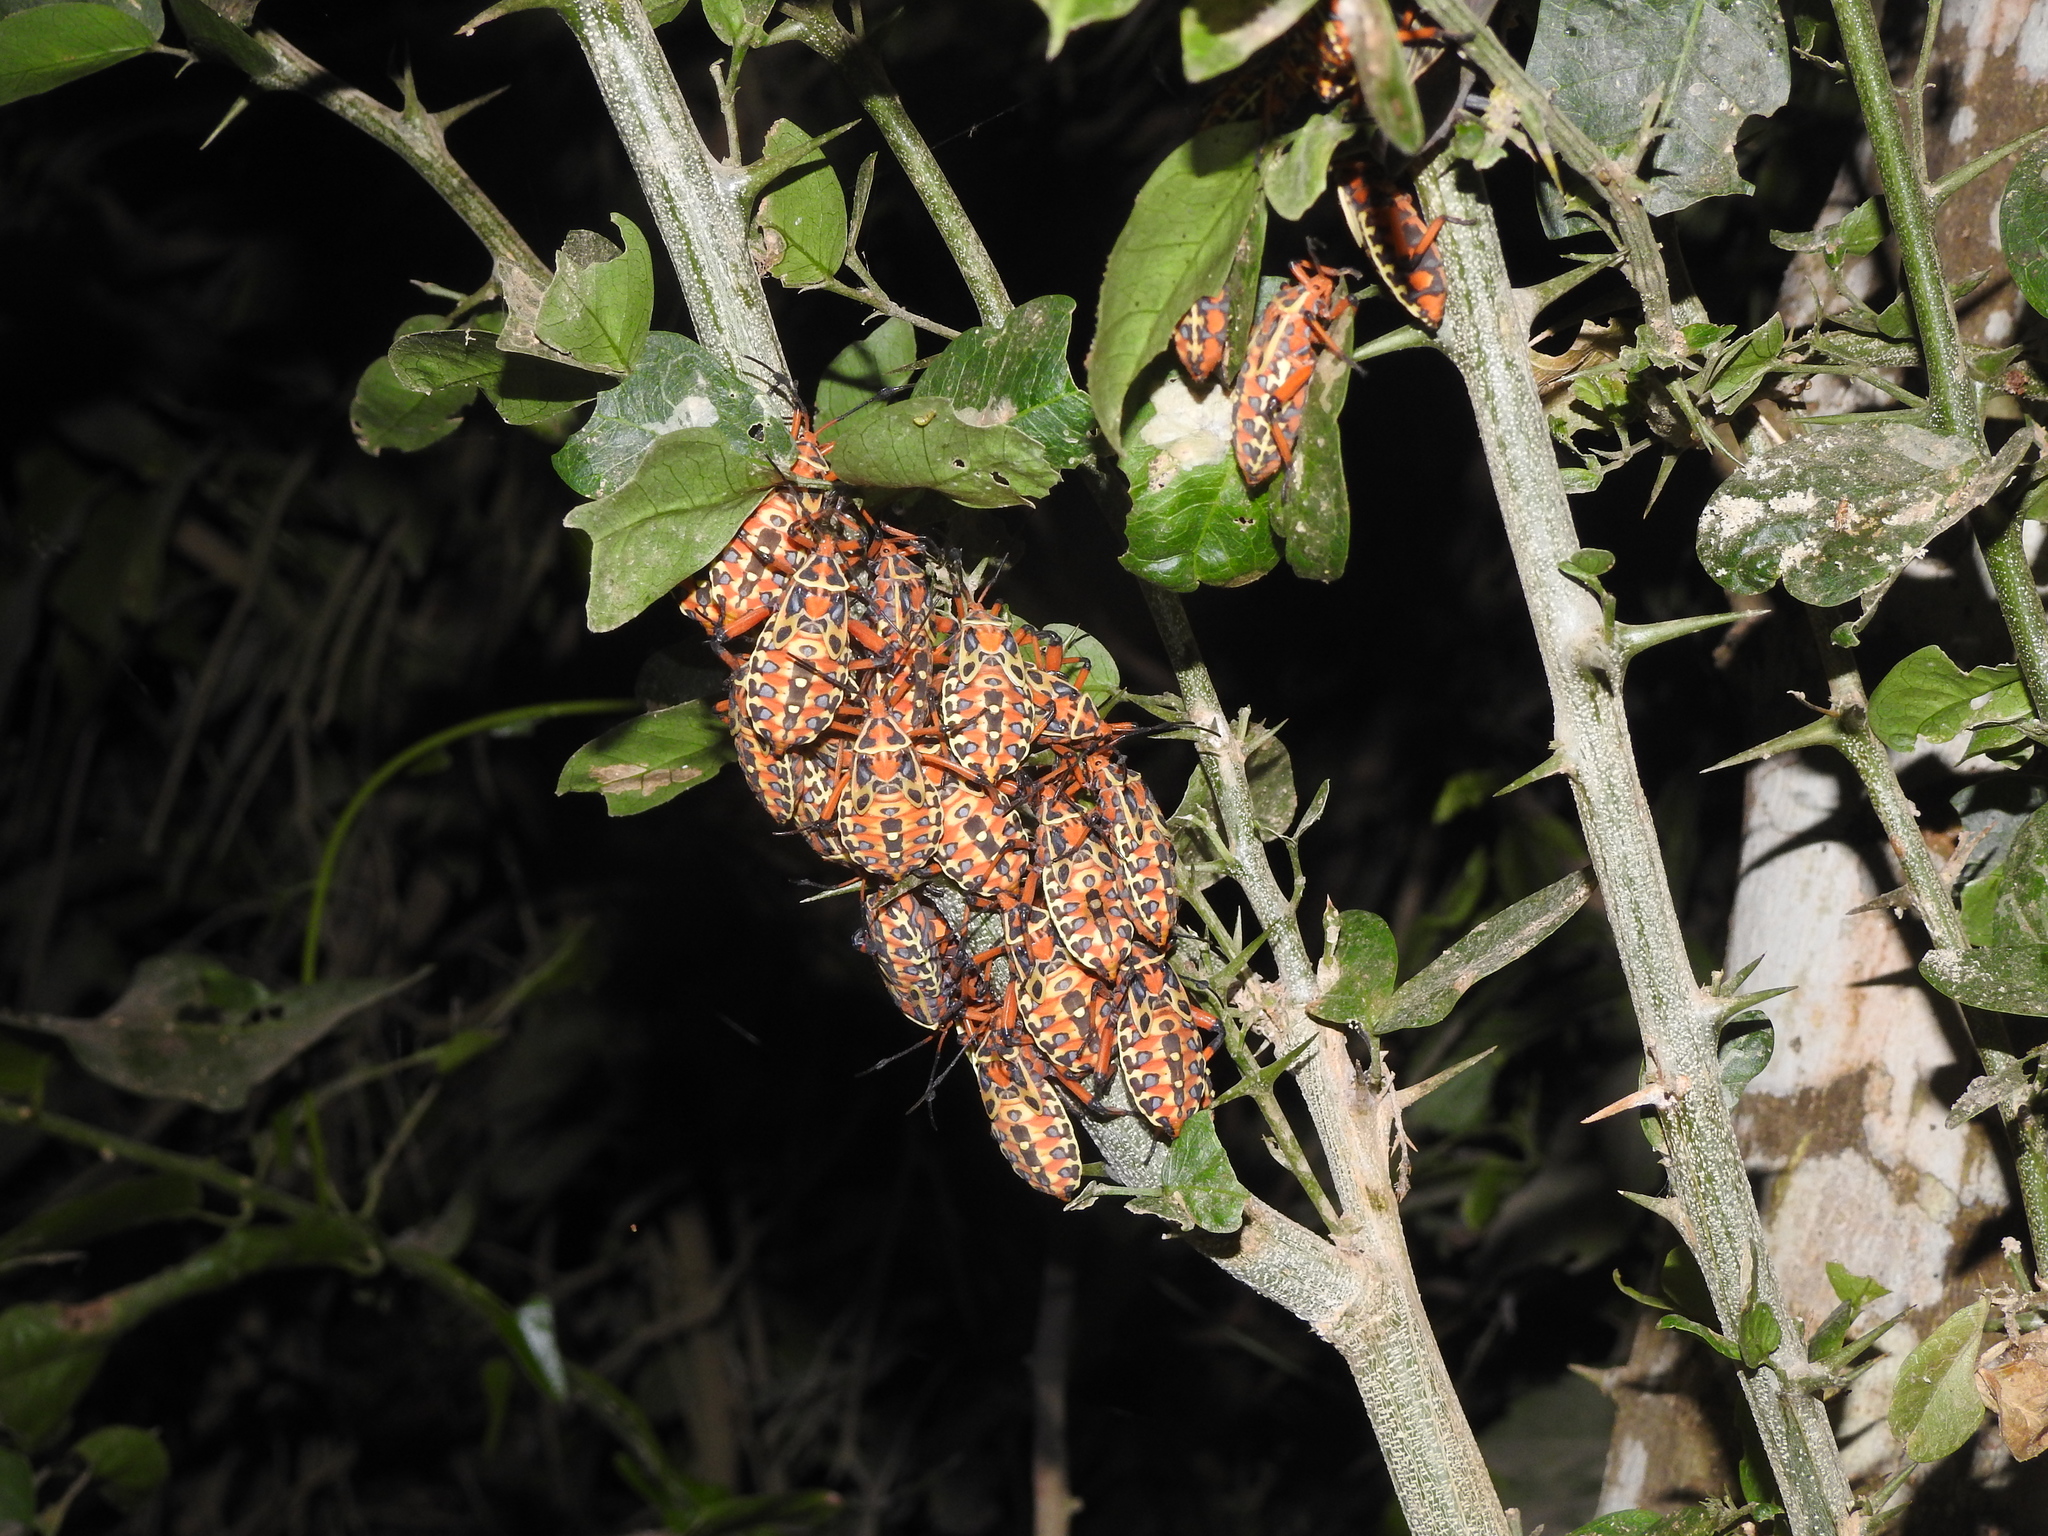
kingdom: Animalia
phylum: Arthropoda
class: Insecta
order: Hemiptera
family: Coreidae
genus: Pachylis
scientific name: Pachylis nervosus
